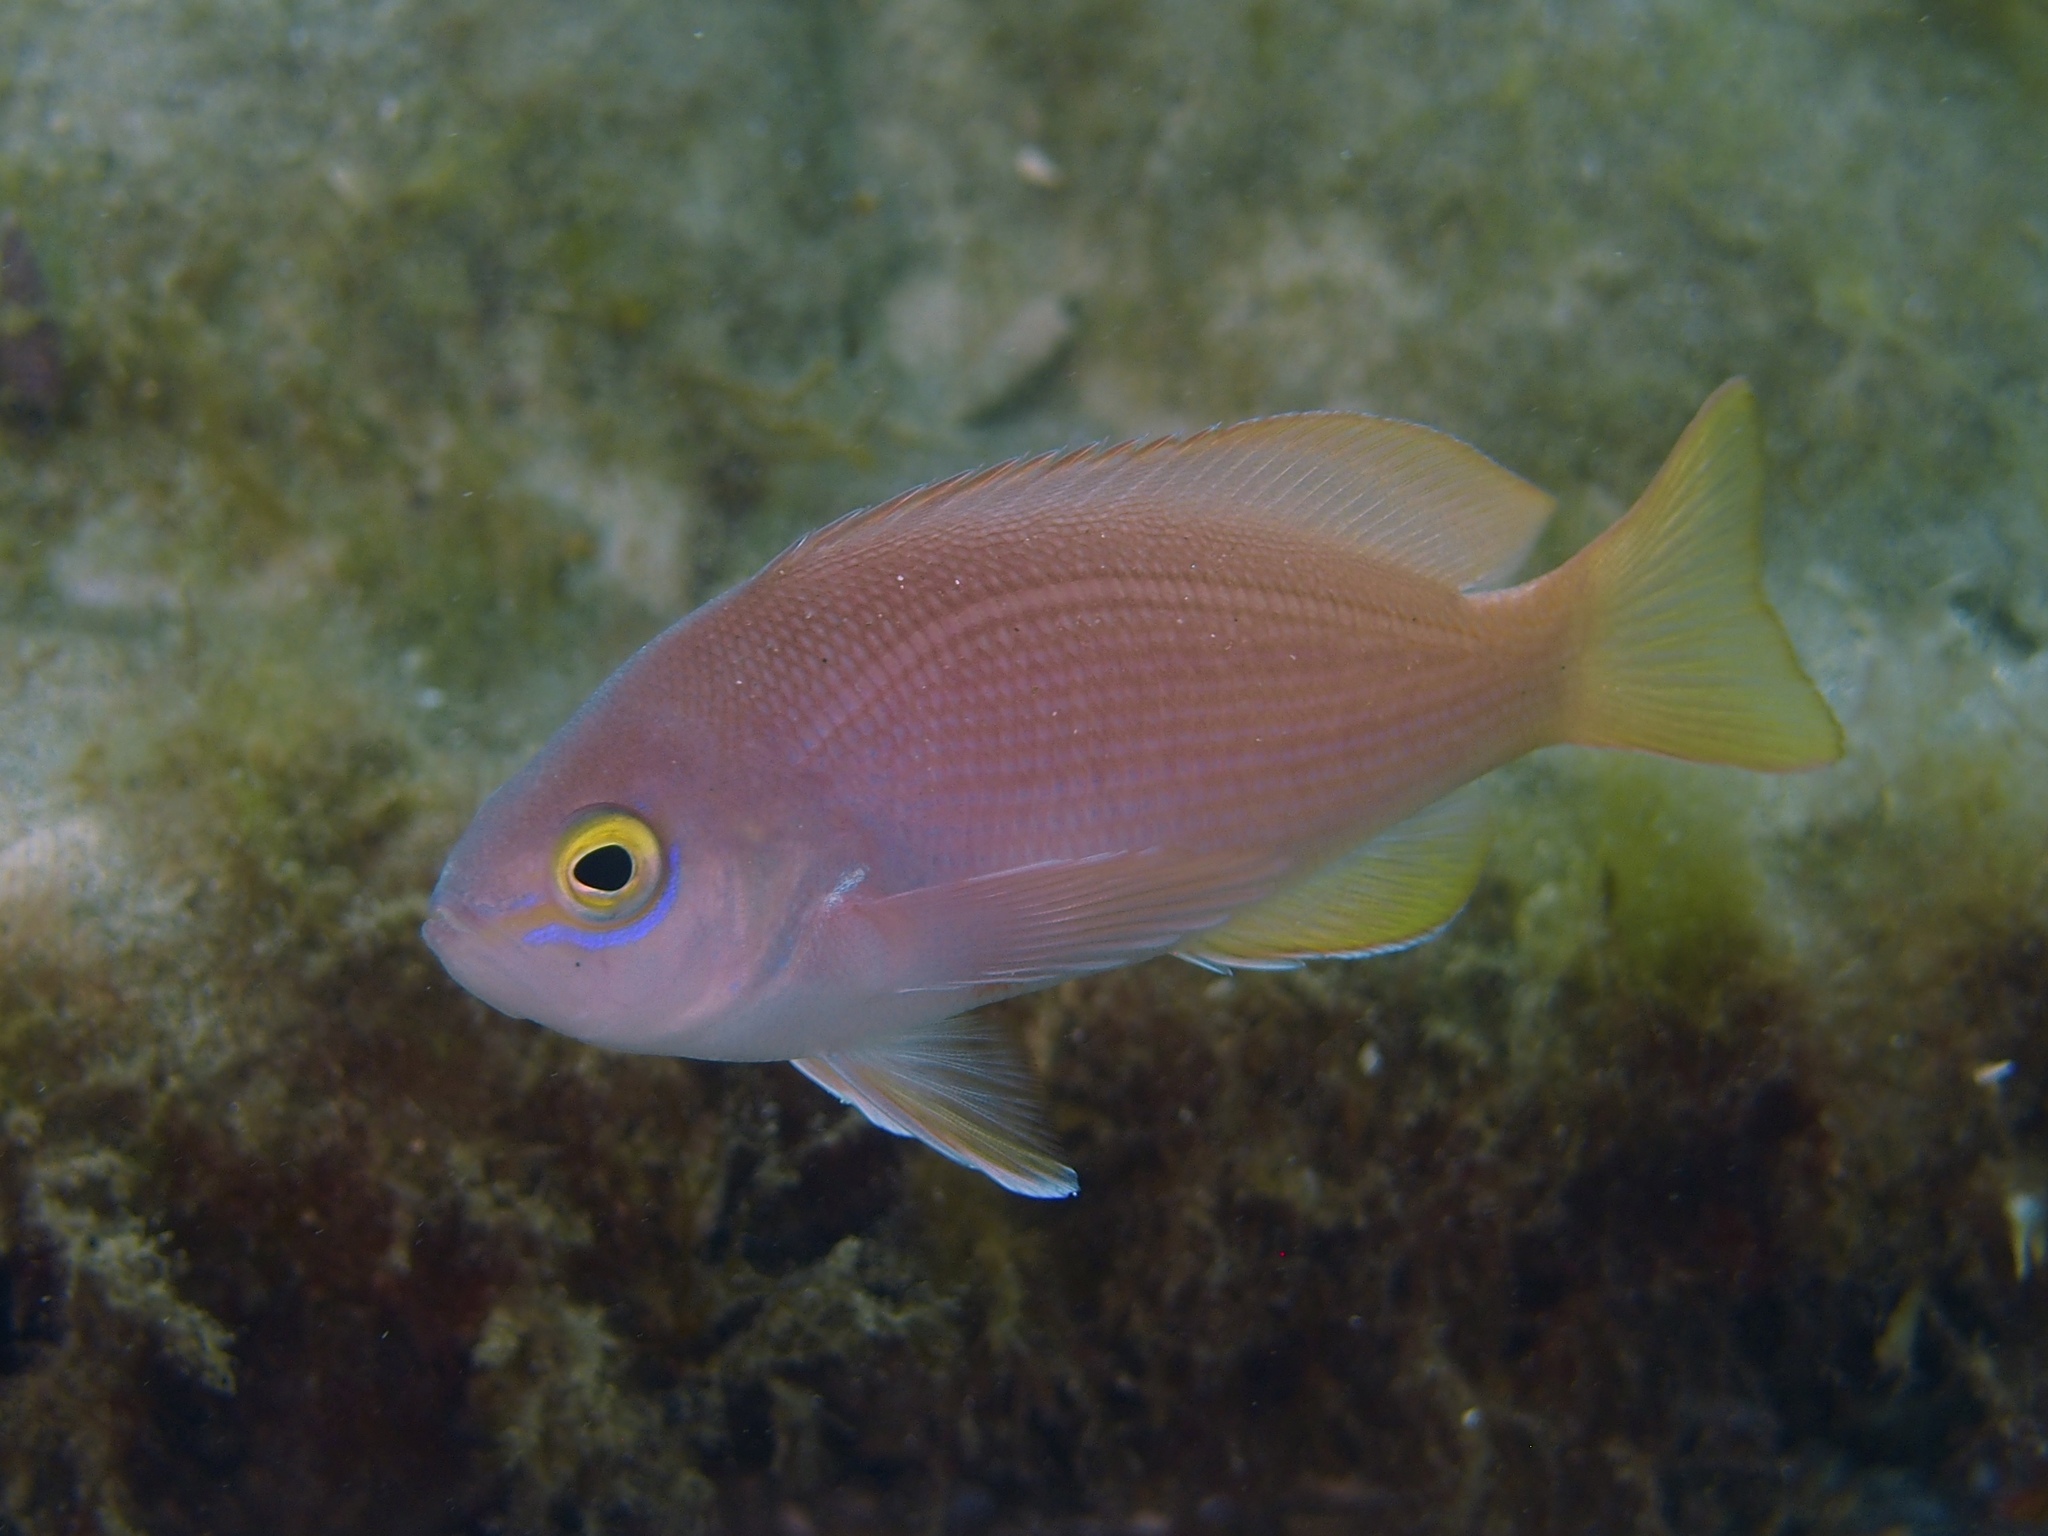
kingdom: Animalia
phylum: Chordata
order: Perciformes
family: Serranidae
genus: Caesioperca
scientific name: Caesioperca rasor
